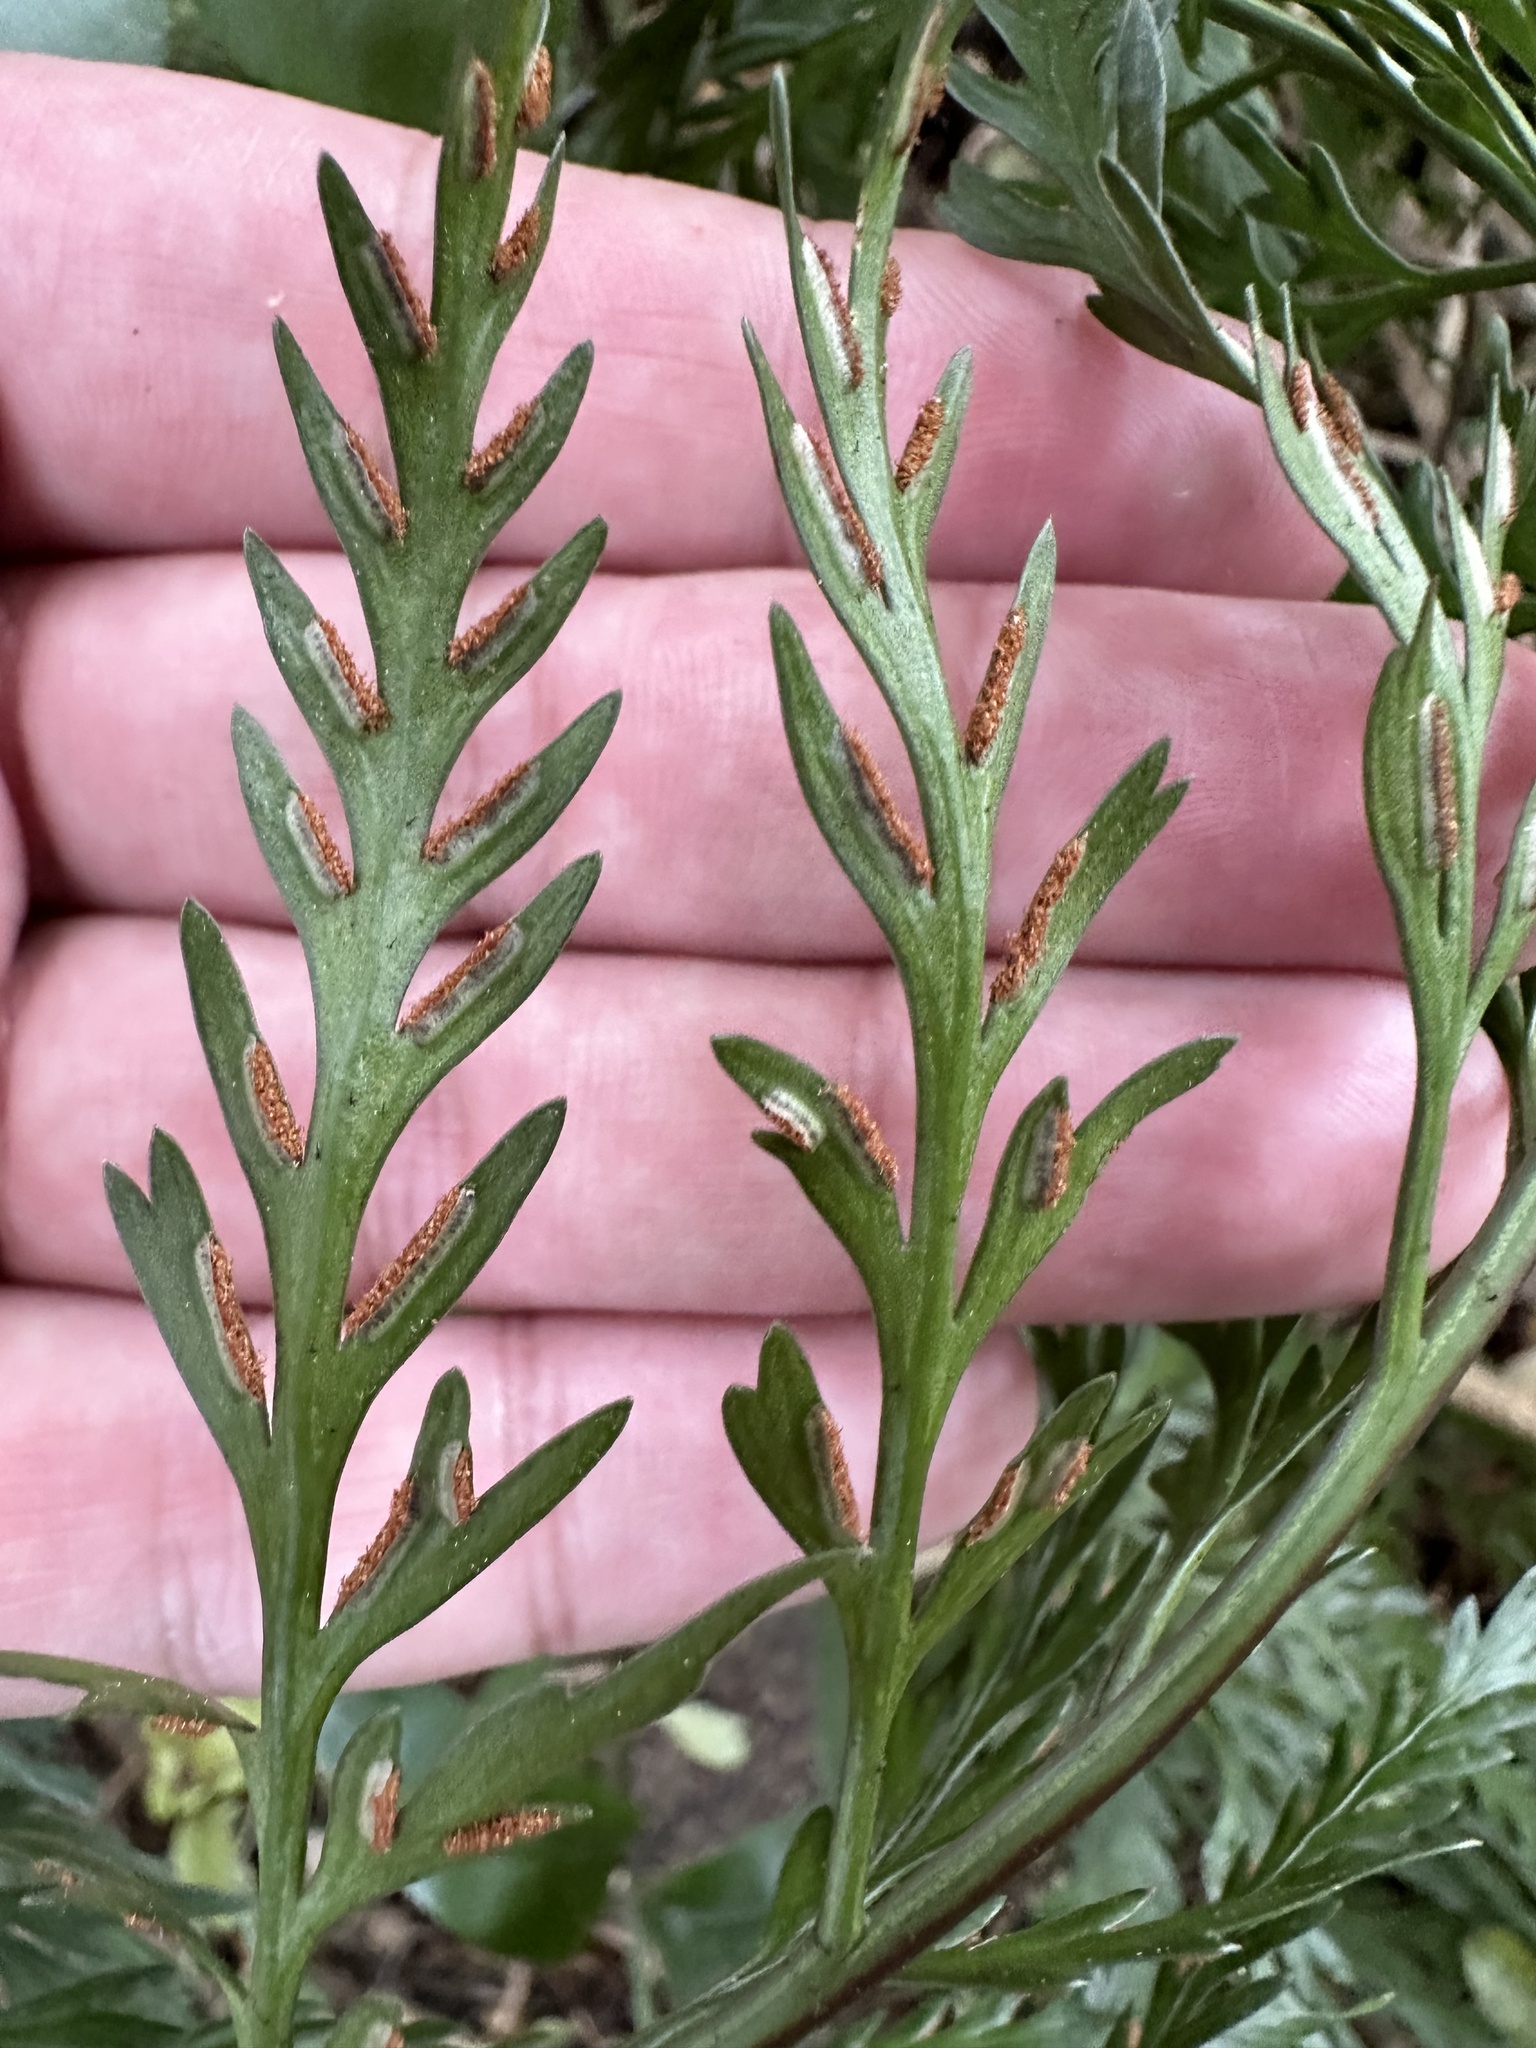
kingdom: Plantae
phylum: Tracheophyta
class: Polypodiopsida
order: Polypodiales
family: Aspleniaceae
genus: Asplenium
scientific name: Asplenium appendiculatum
